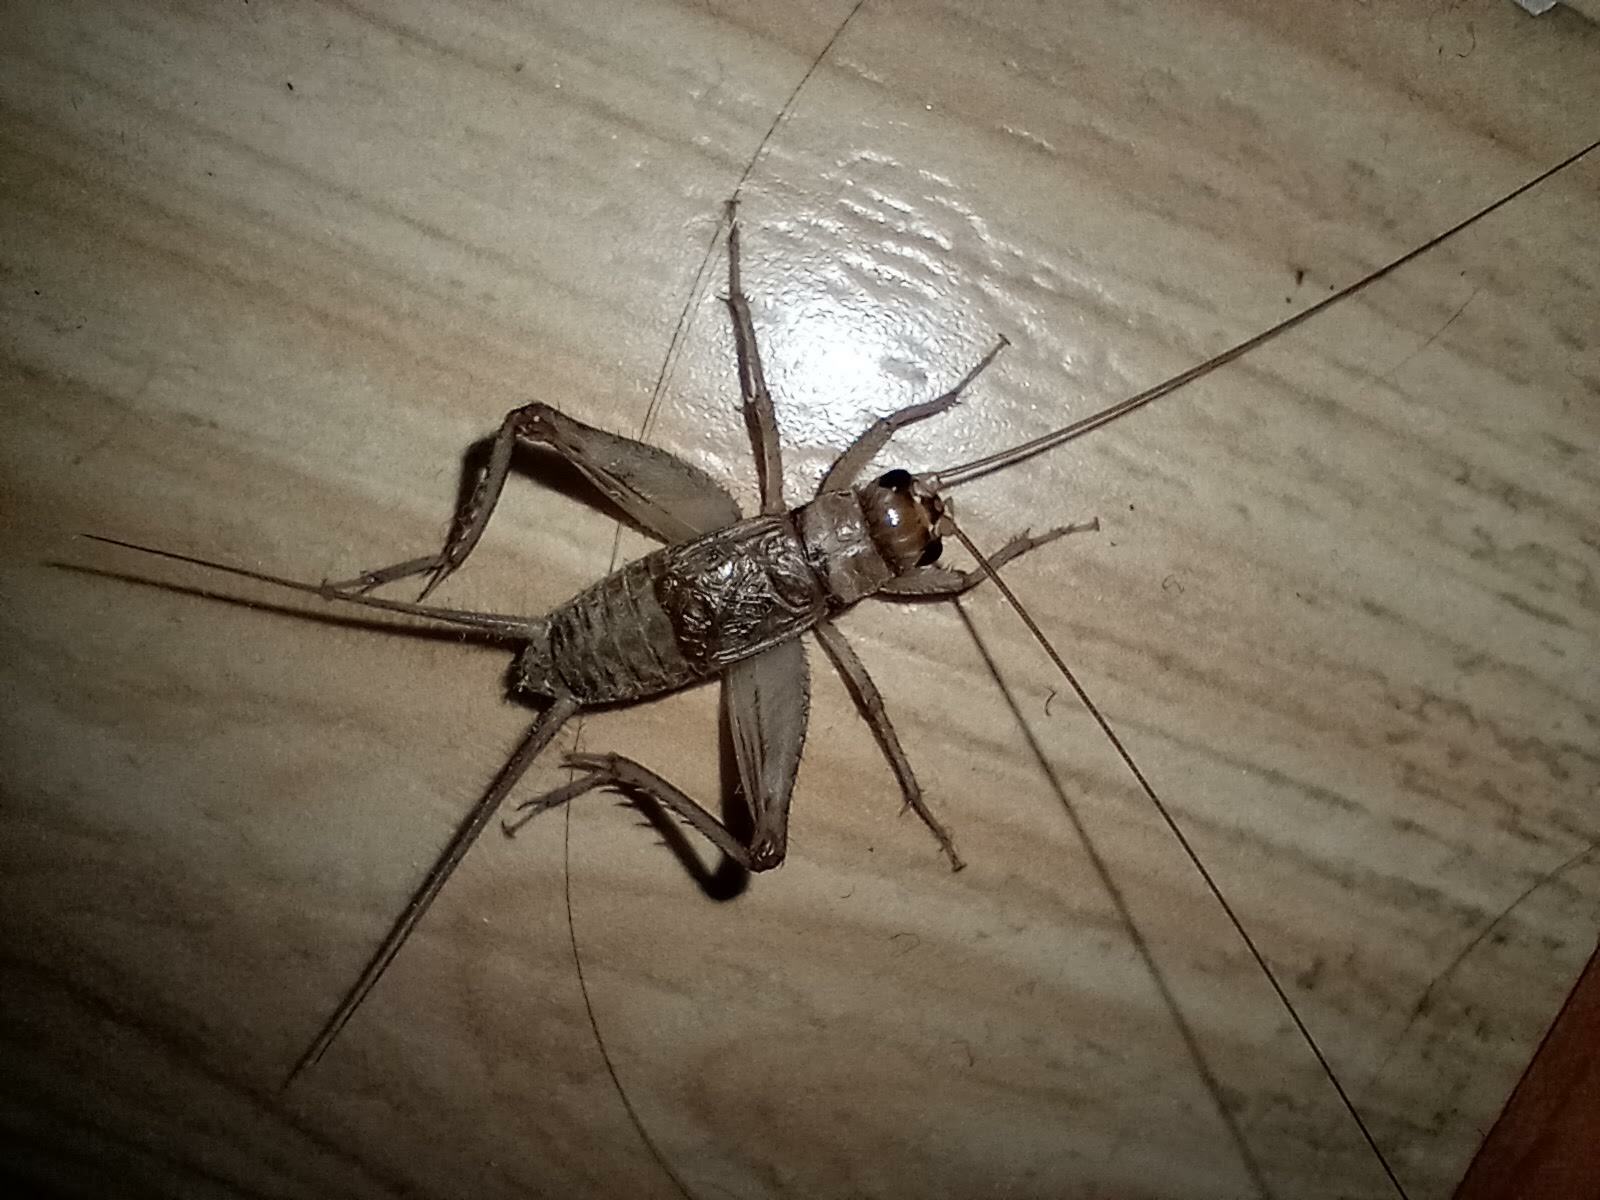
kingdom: Animalia
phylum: Arthropoda
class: Insecta
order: Orthoptera
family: Gryllidae
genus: Gryllodes
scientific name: Gryllodes sigillatus
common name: Tropical house cricket
